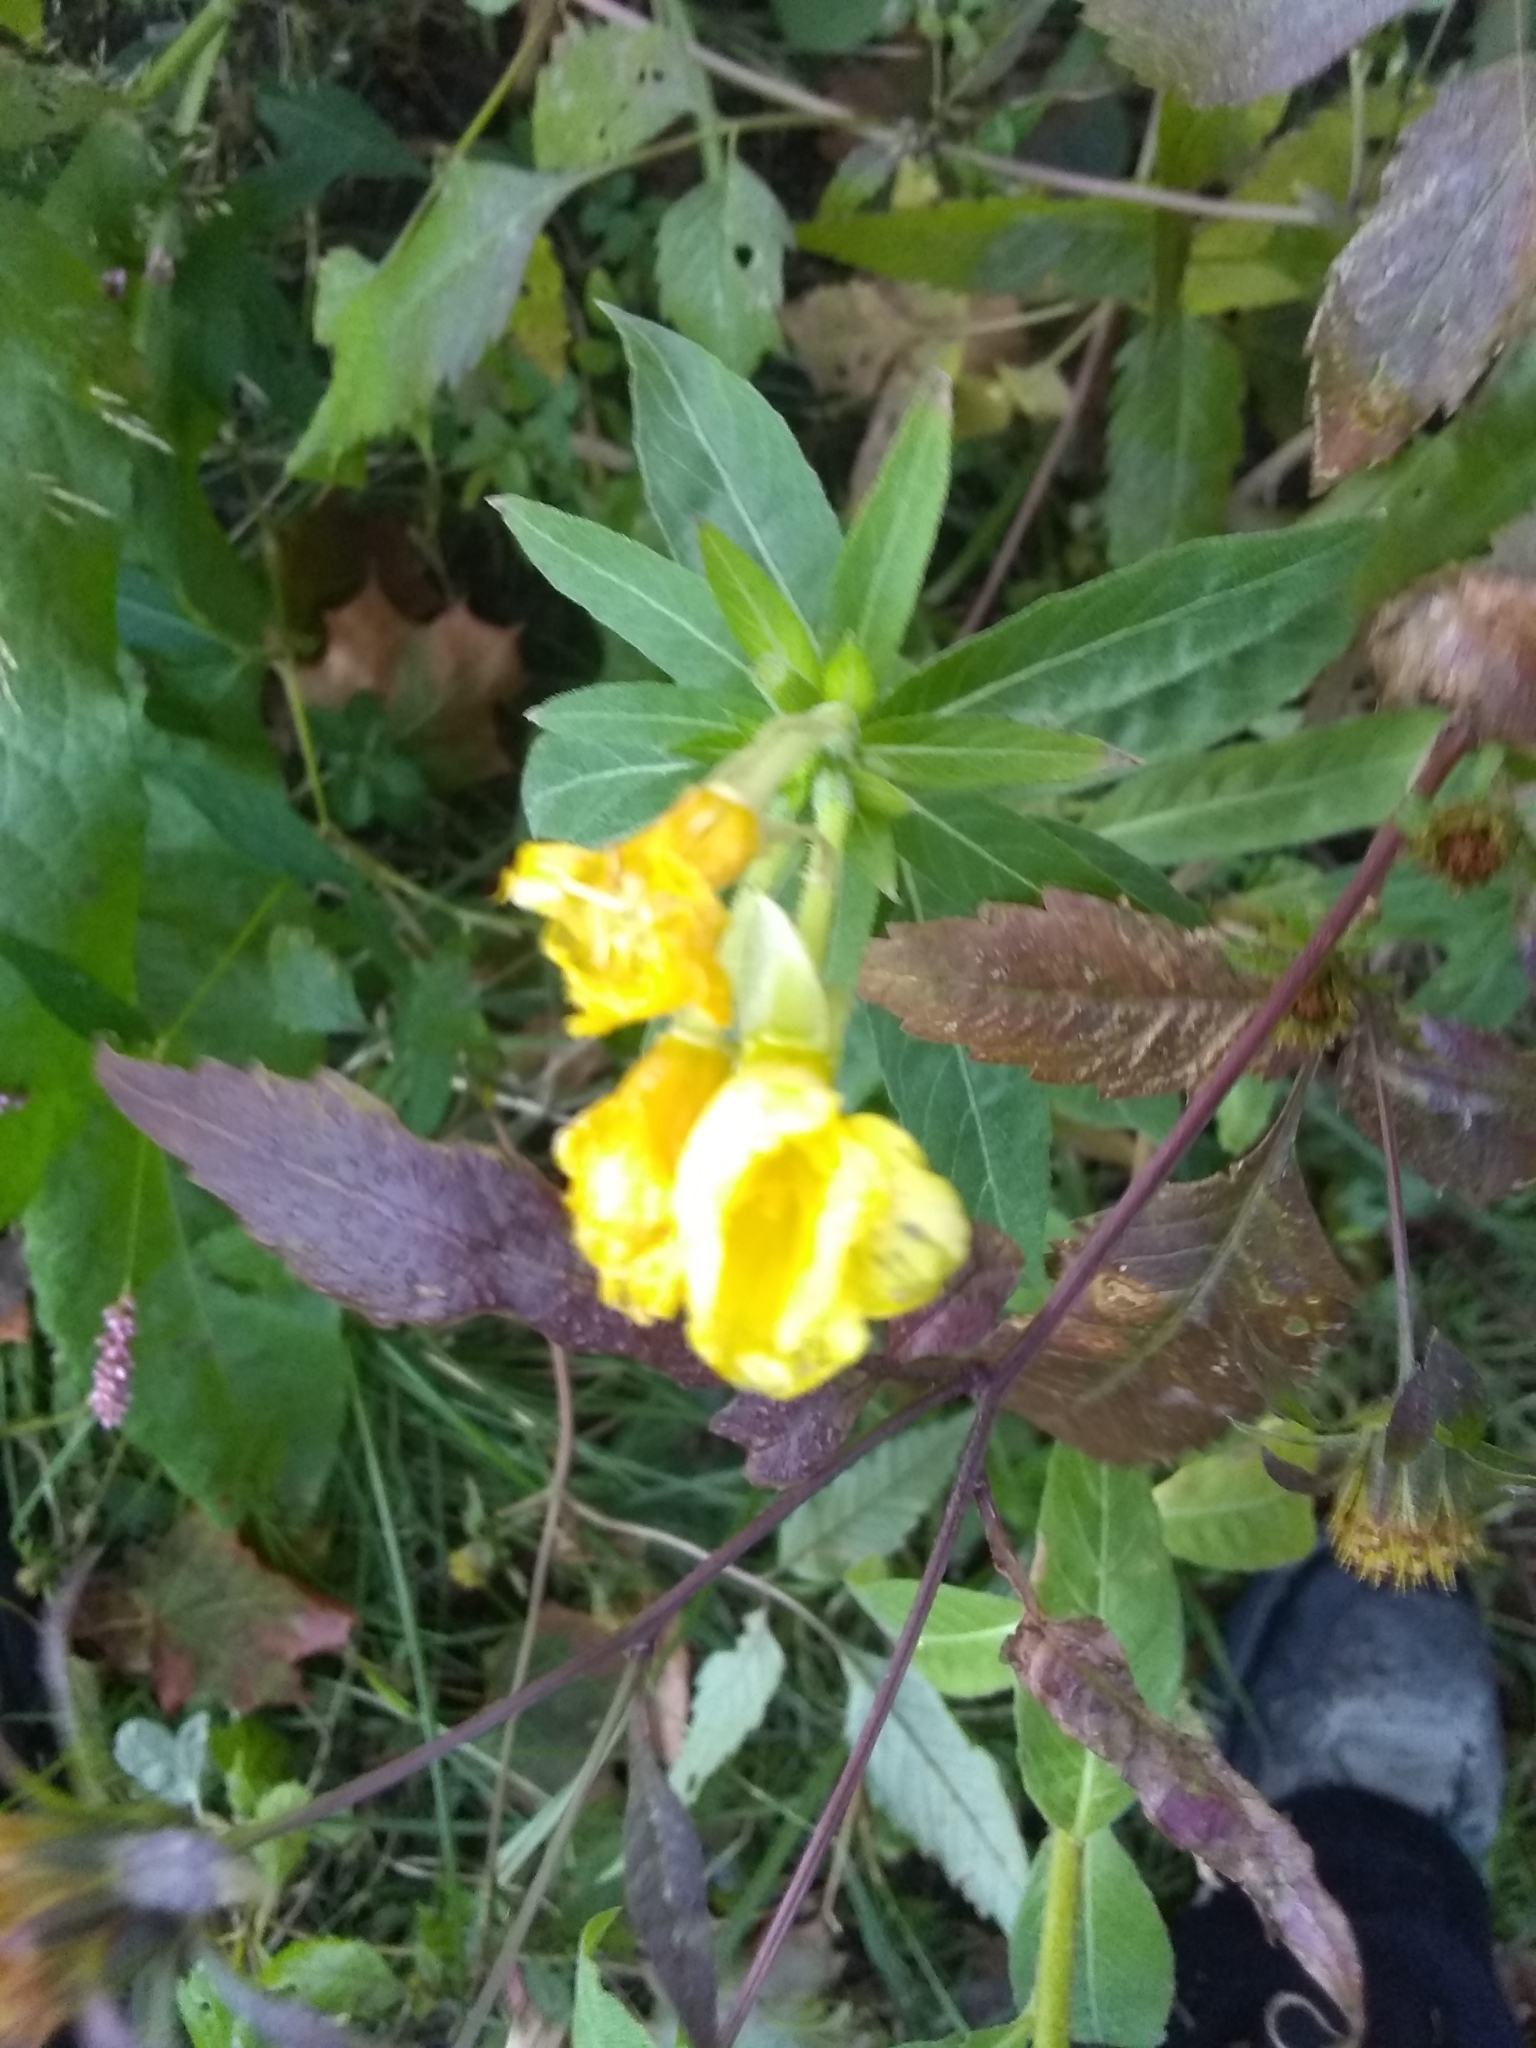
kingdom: Plantae
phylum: Tracheophyta
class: Magnoliopsida
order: Myrtales
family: Onagraceae
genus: Oenothera
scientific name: Oenothera biennis
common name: Common evening-primrose
